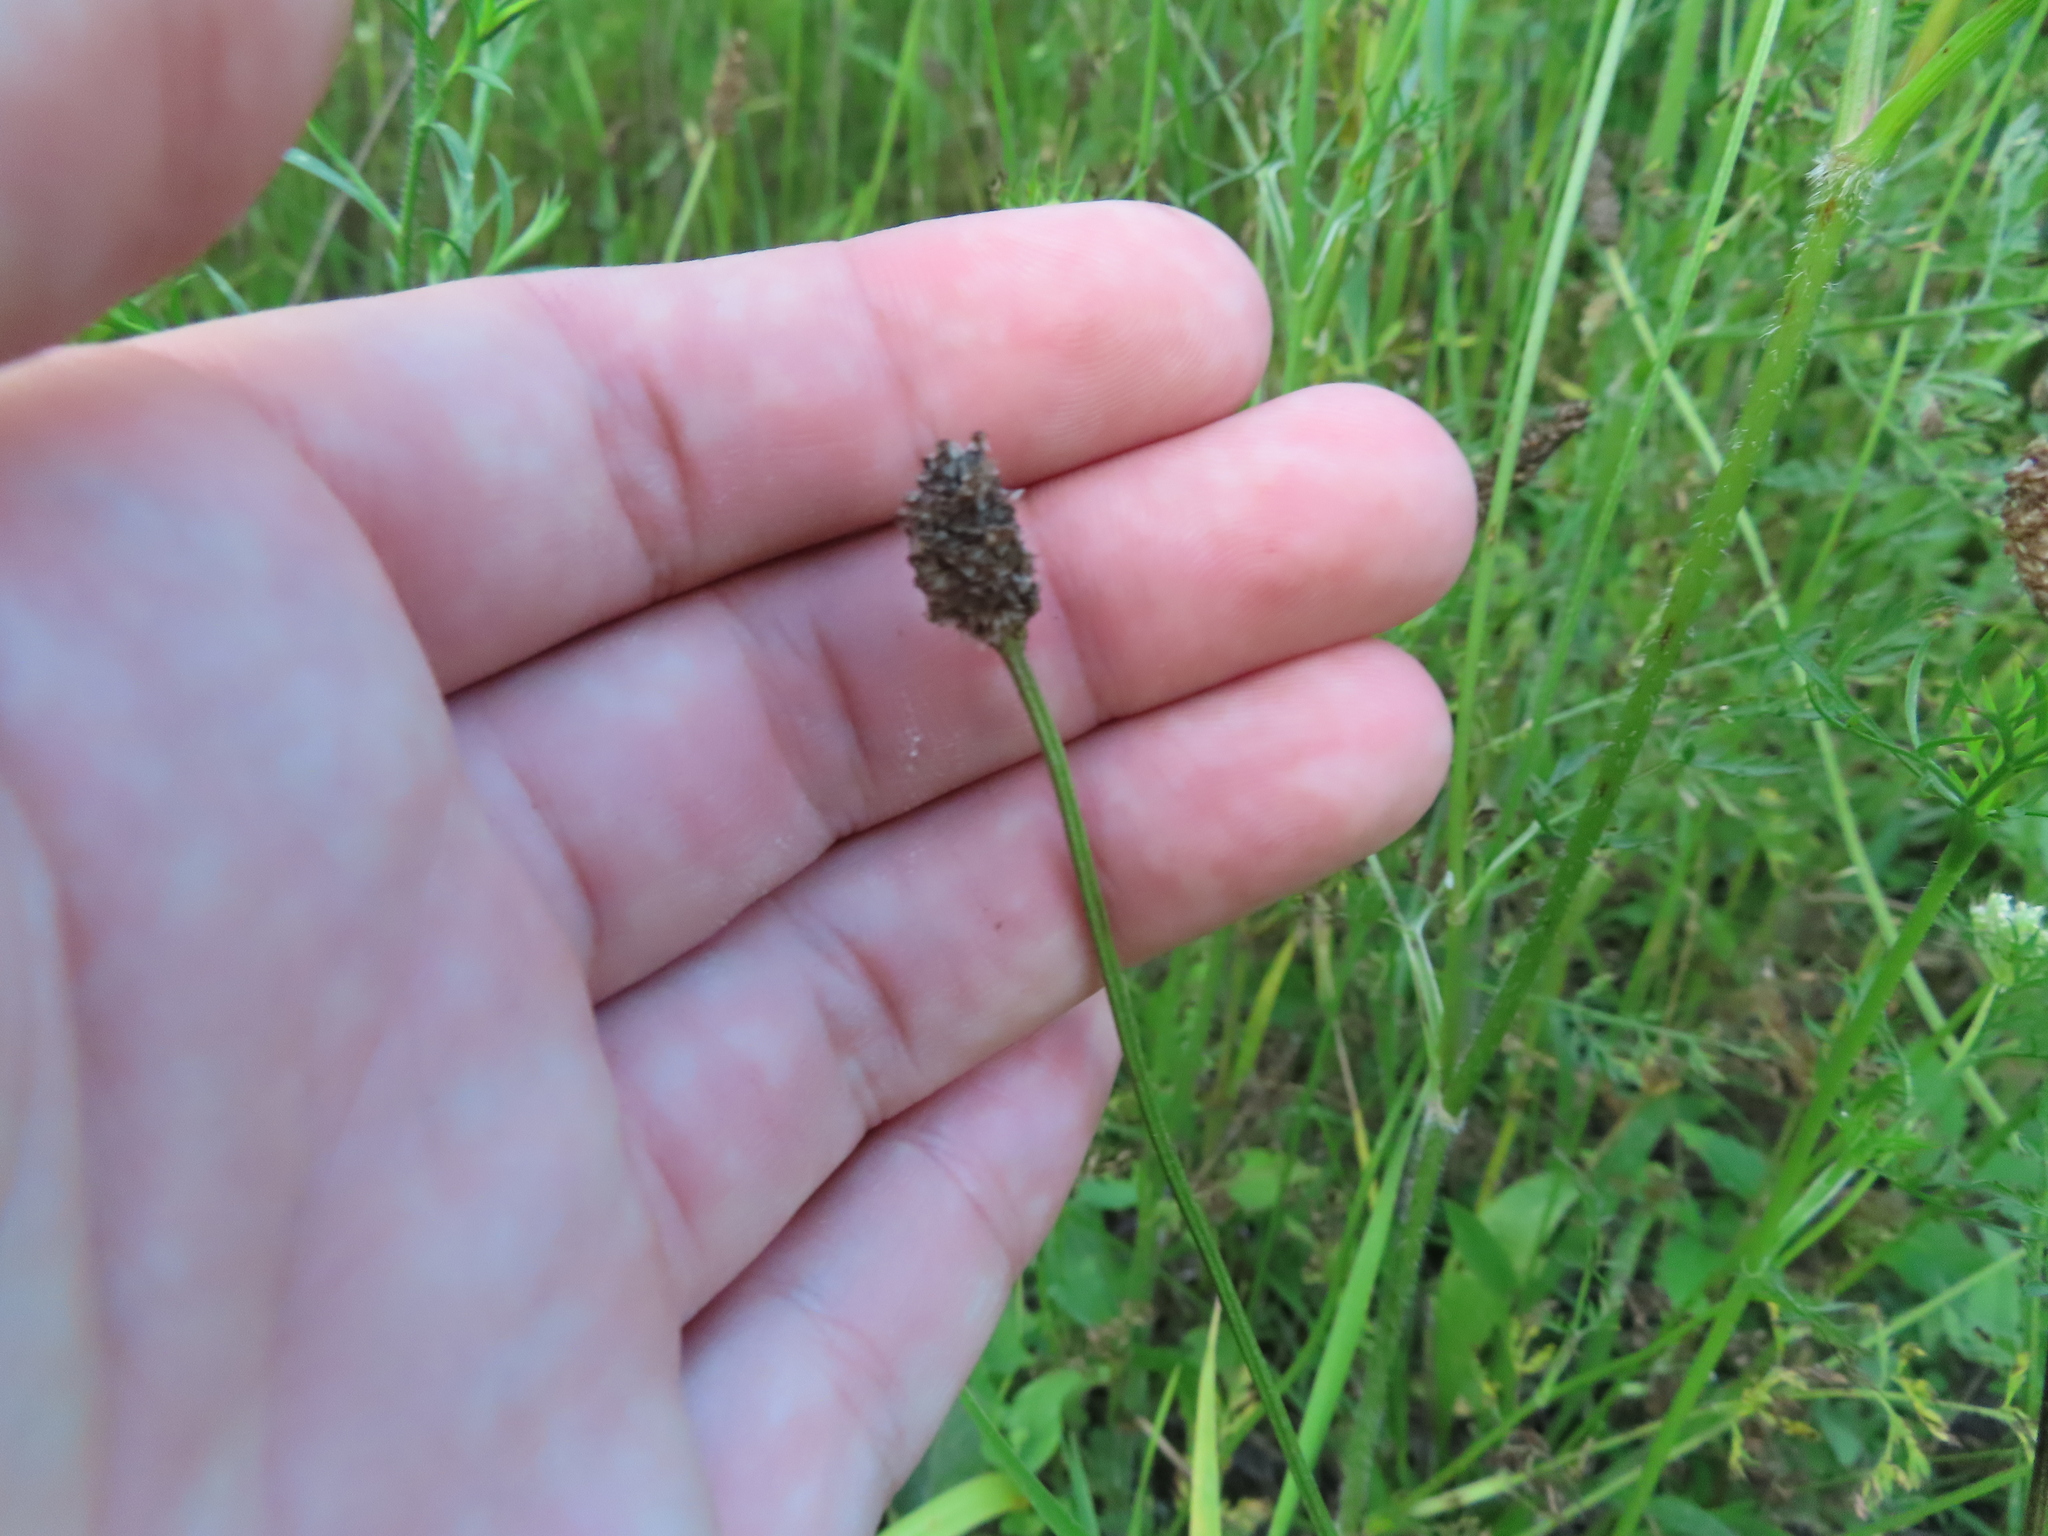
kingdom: Plantae
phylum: Tracheophyta
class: Magnoliopsida
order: Lamiales
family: Plantaginaceae
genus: Plantago
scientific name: Plantago lanceolata
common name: Ribwort plantain
